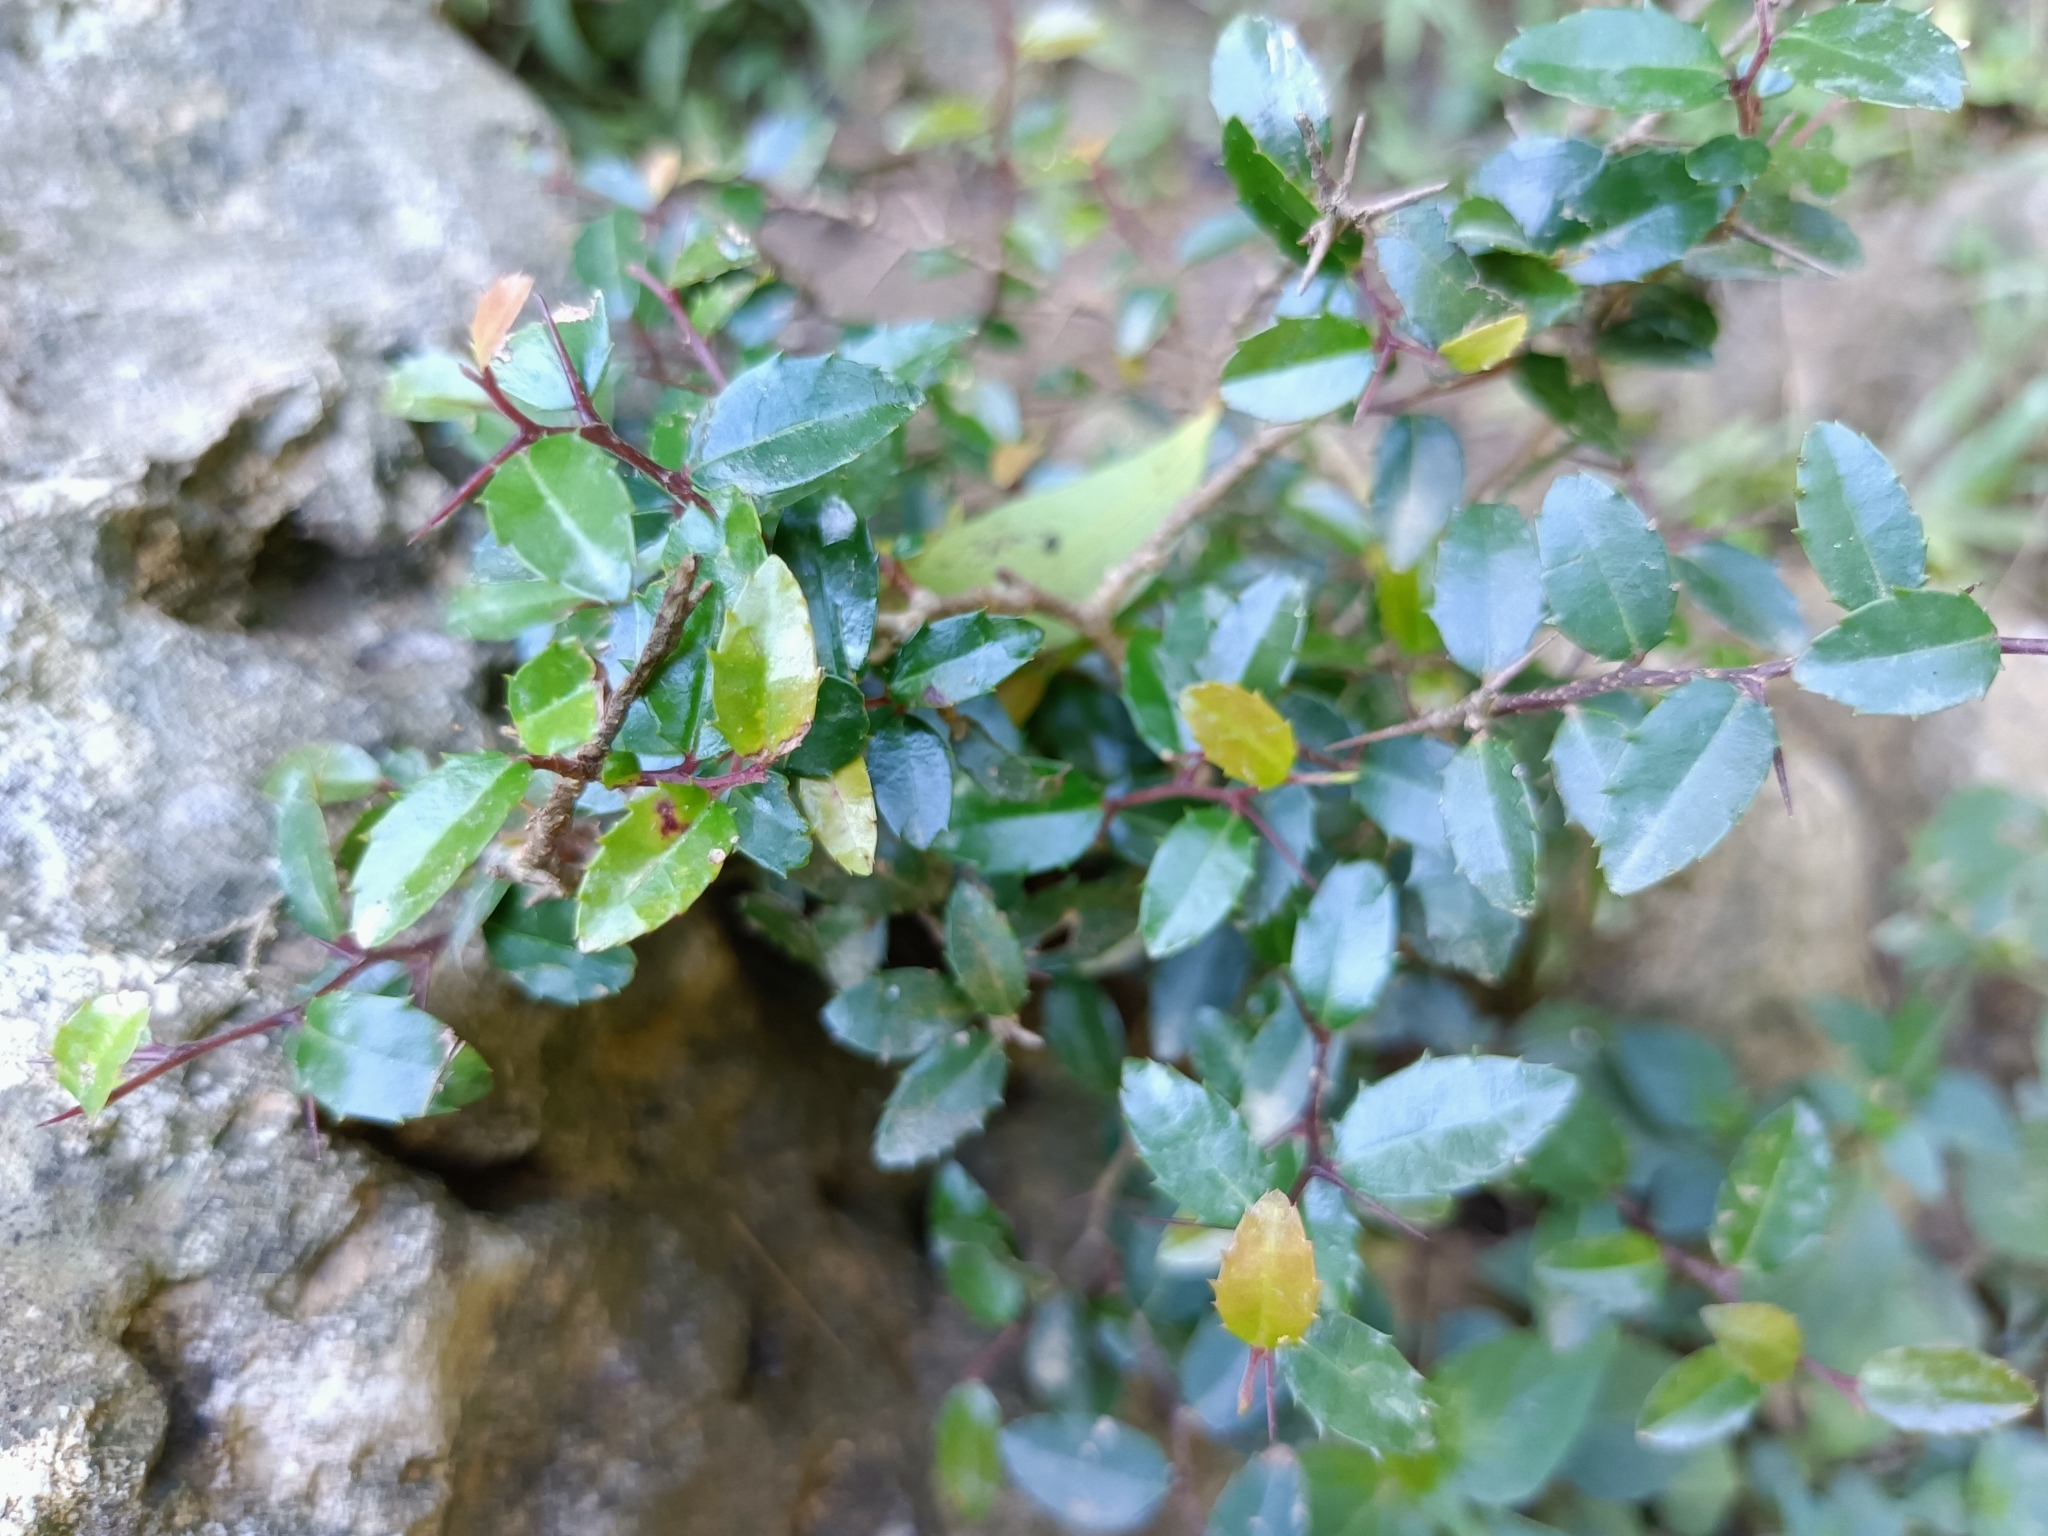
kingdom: Plantae
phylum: Tracheophyta
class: Magnoliopsida
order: Malpighiales
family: Salicaceae
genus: Scolopia
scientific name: Scolopia oldhamii
